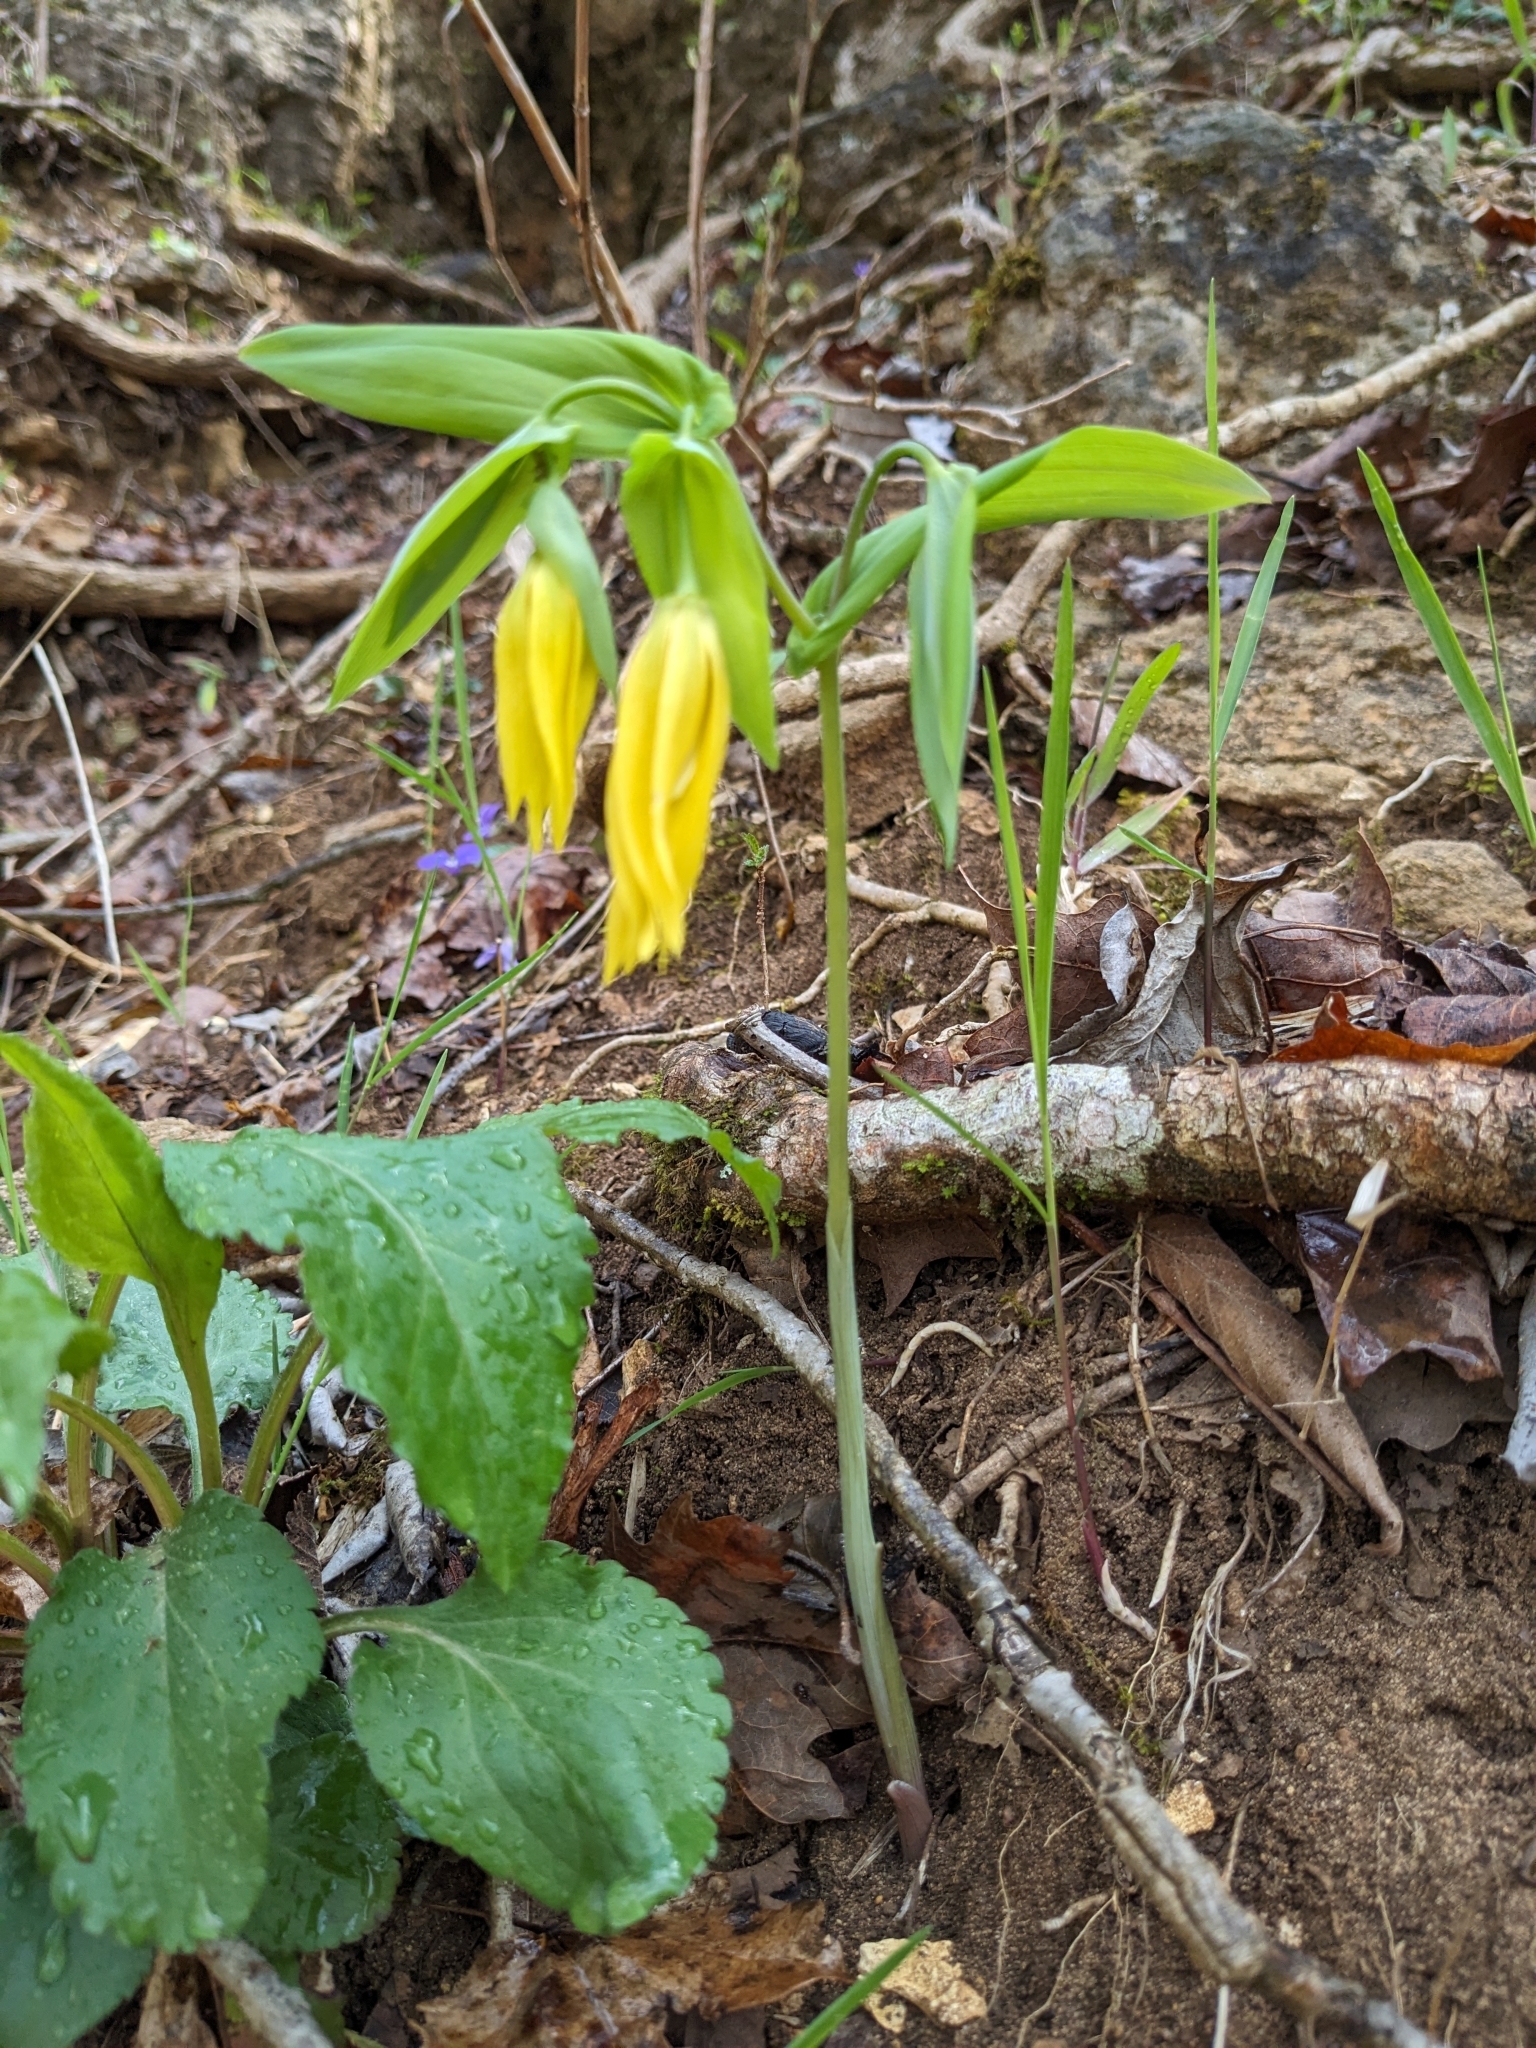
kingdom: Plantae
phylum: Tracheophyta
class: Liliopsida
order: Liliales
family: Colchicaceae
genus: Uvularia
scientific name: Uvularia grandiflora
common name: Bellwort
